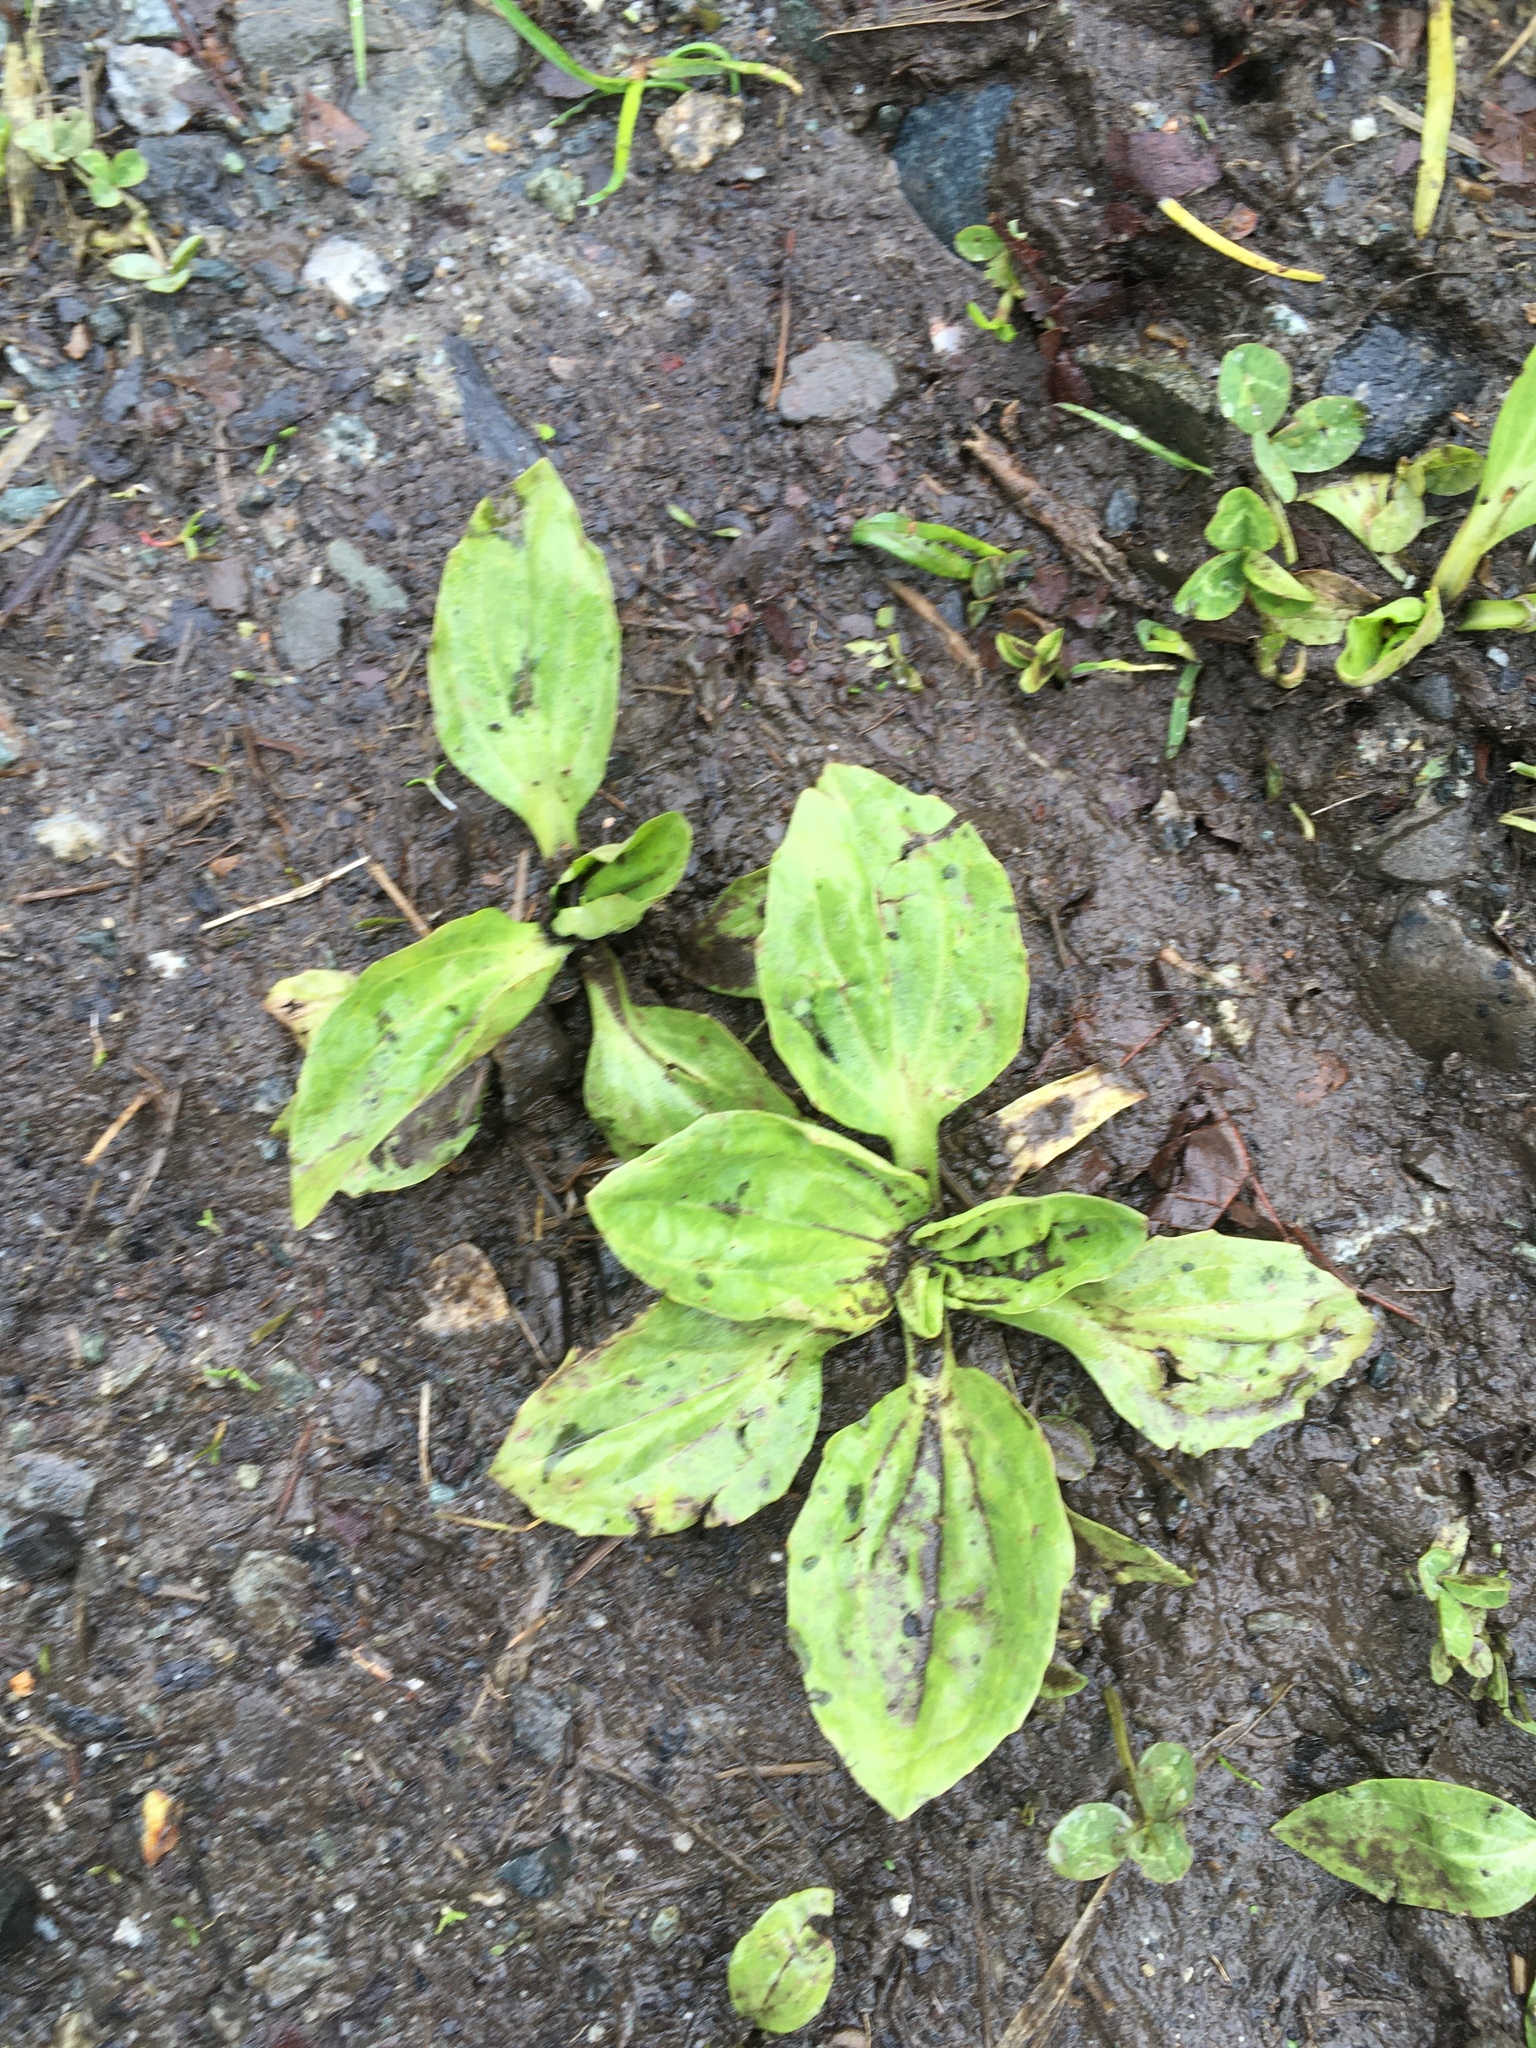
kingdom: Plantae
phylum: Tracheophyta
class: Magnoliopsida
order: Lamiales
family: Plantaginaceae
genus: Plantago
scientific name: Plantago major
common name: Common plantain
